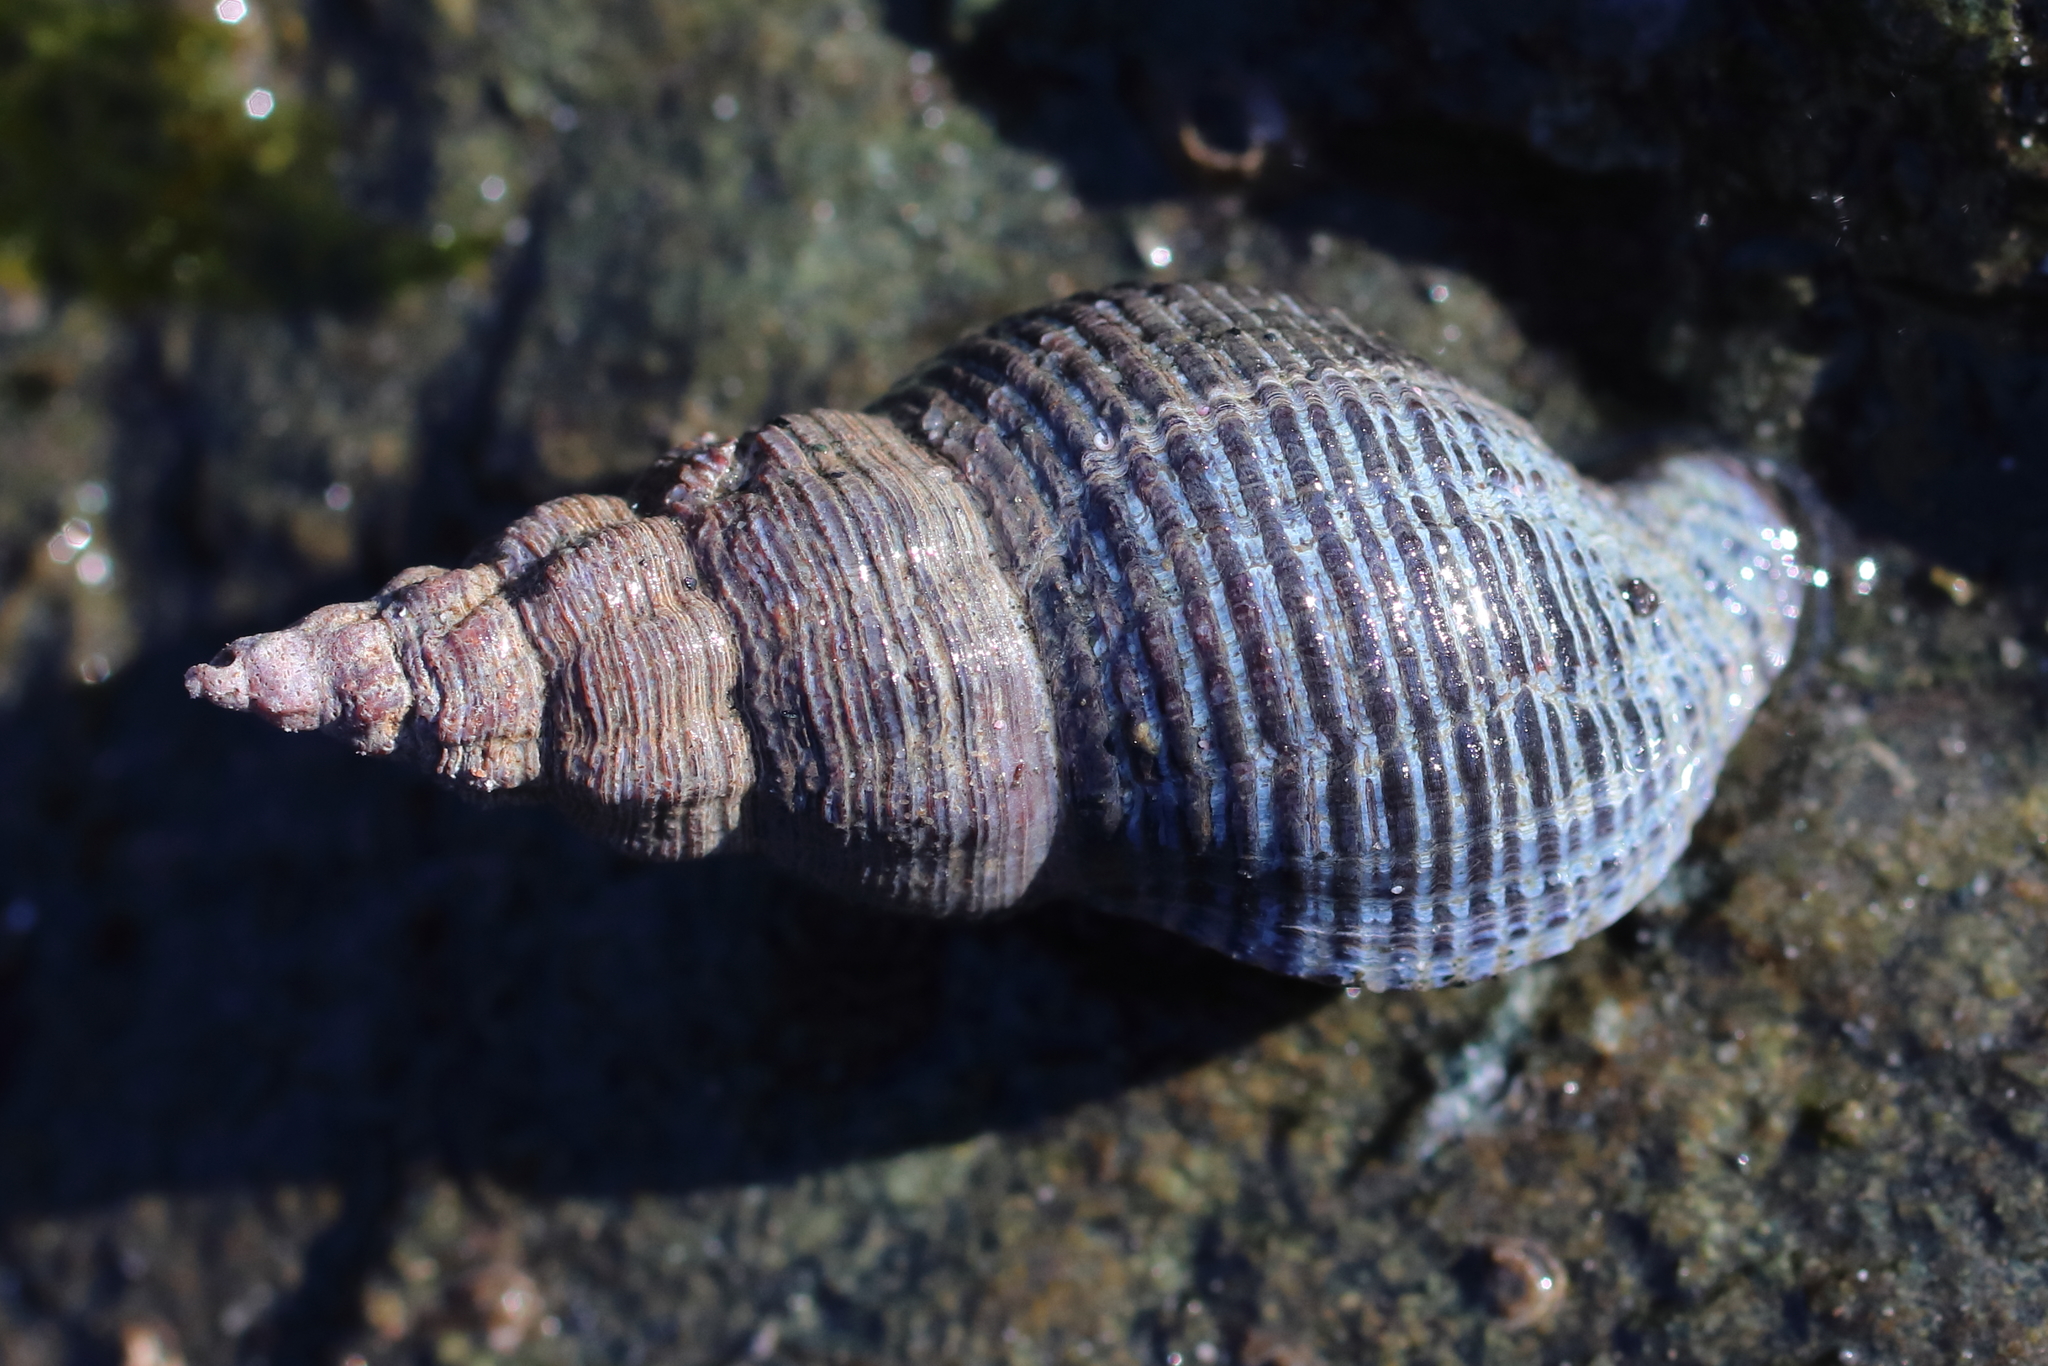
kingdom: Animalia
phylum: Mollusca
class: Gastropoda
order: Neogastropoda
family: Tudiclidae
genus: Lirabuccinum
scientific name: Lirabuccinum dirum
